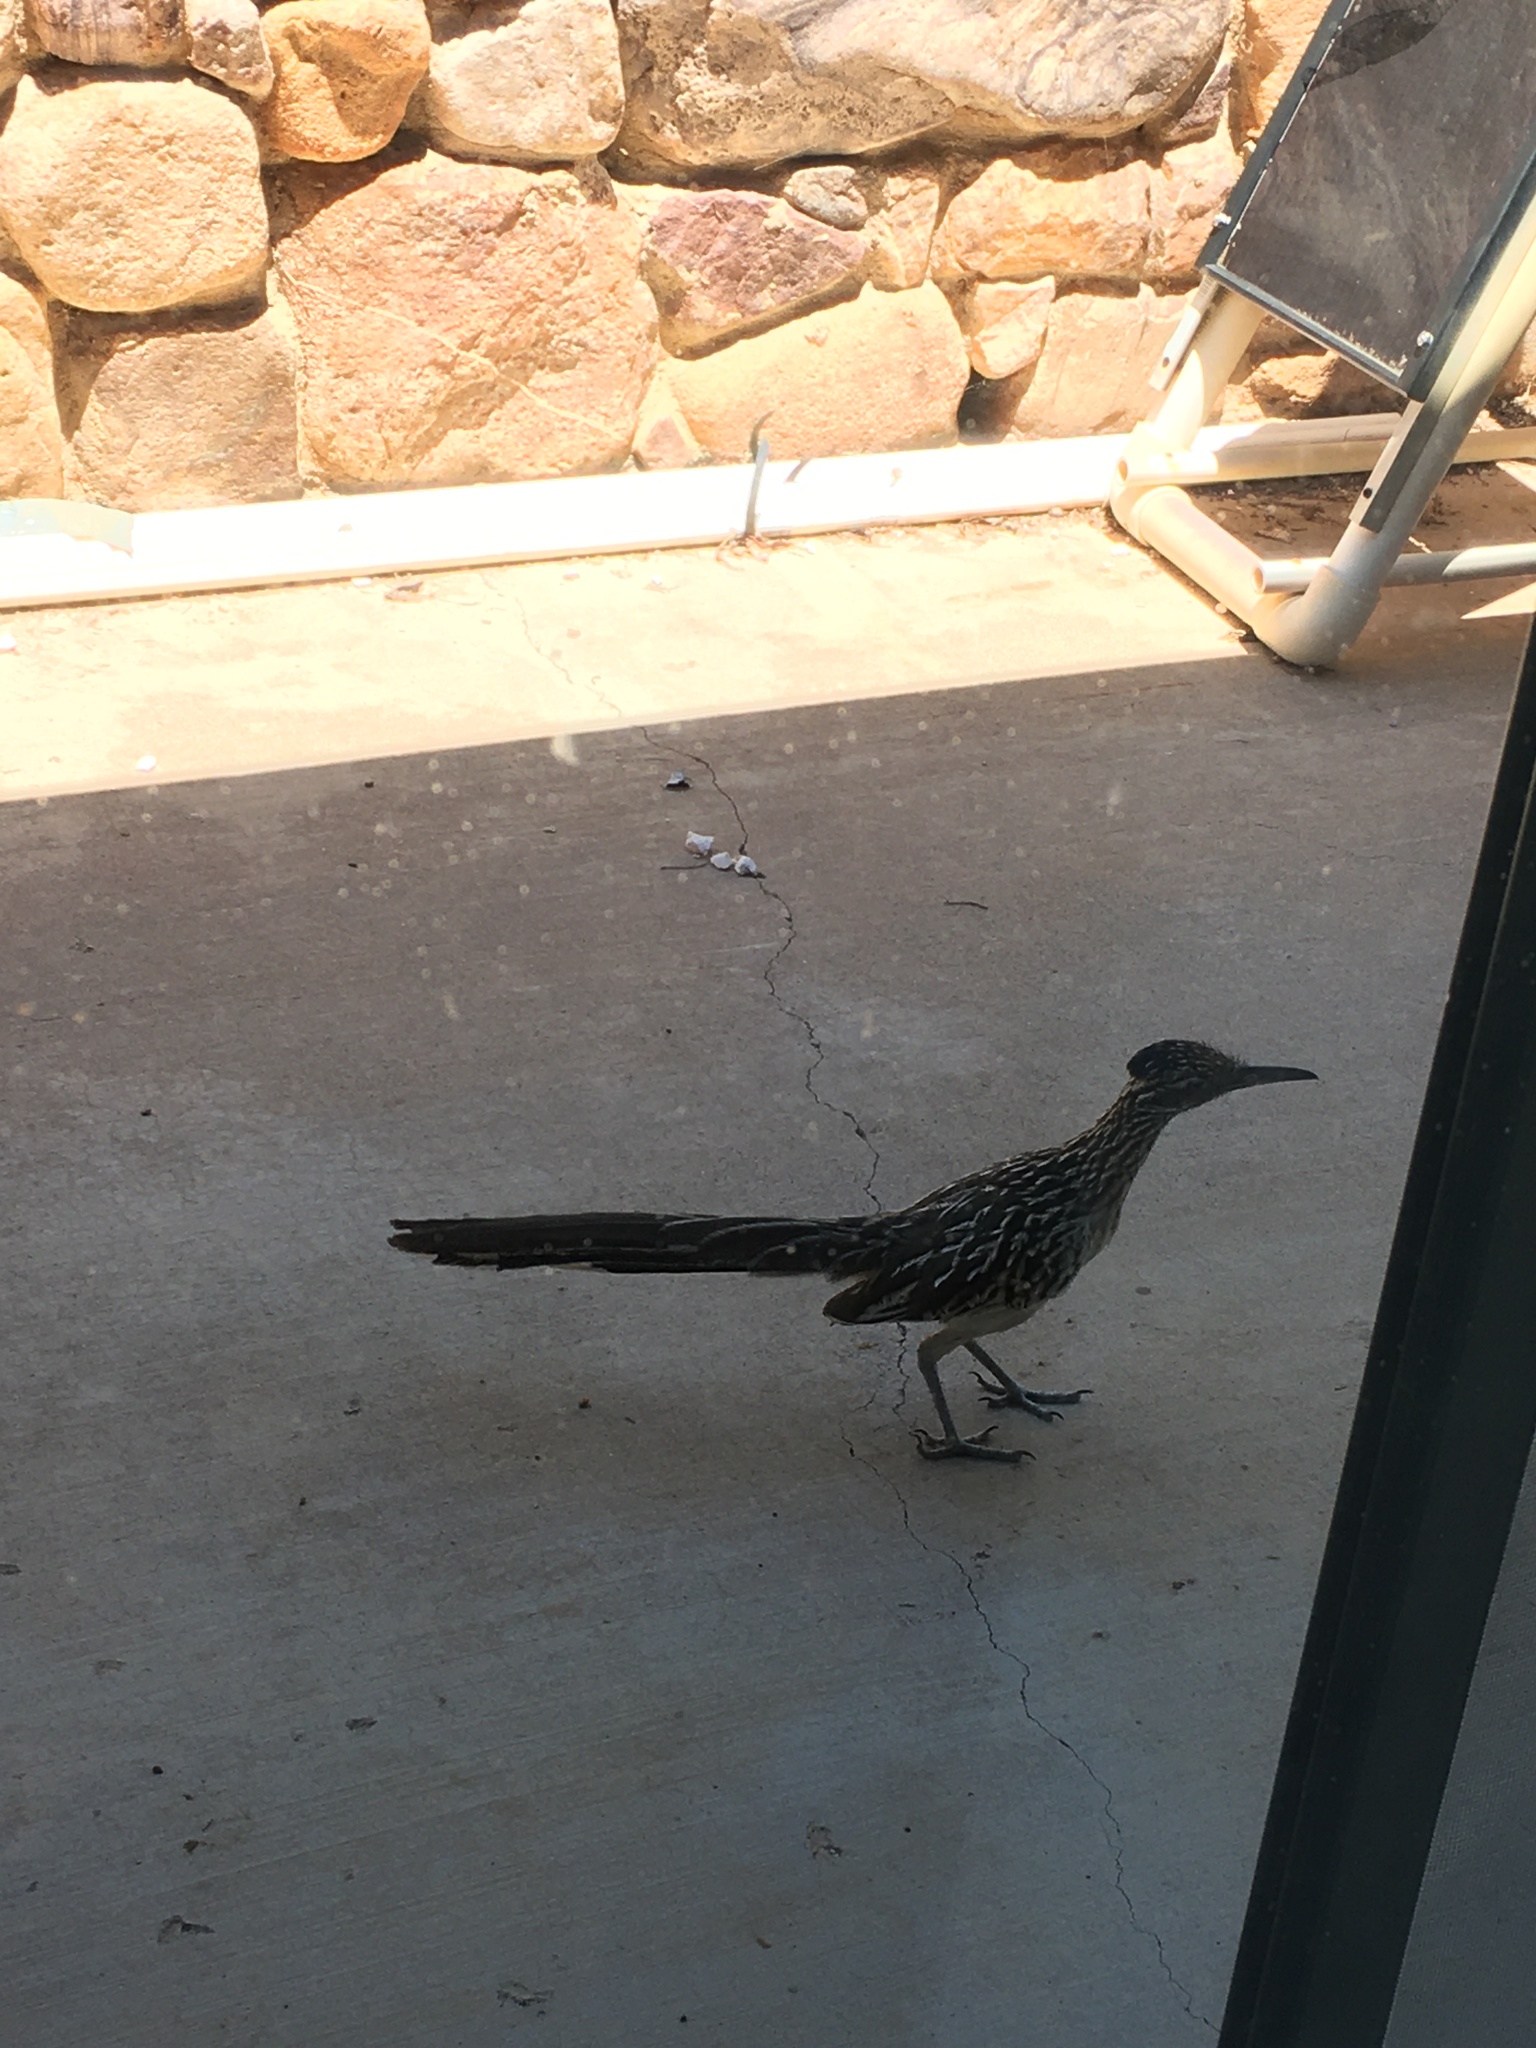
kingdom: Animalia
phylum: Chordata
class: Aves
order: Cuculiformes
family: Cuculidae
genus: Geococcyx
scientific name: Geococcyx californianus
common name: Greater roadrunner
